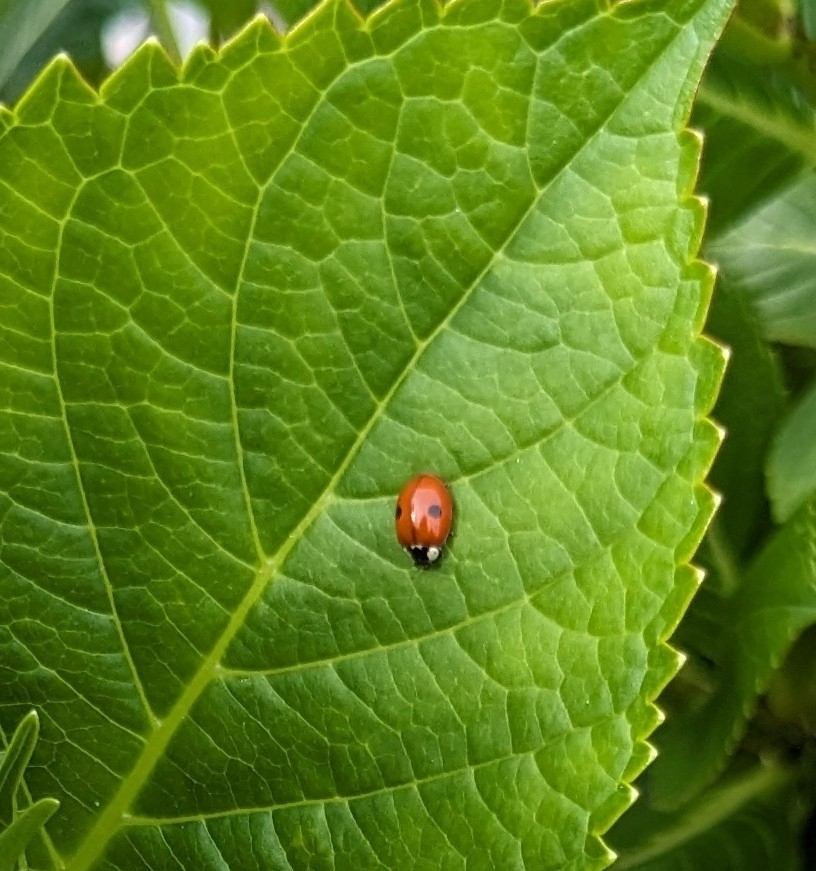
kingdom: Animalia
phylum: Arthropoda
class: Insecta
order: Coleoptera
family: Coccinellidae
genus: Adalia
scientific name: Adalia bipunctata
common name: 2-spot ladybird
